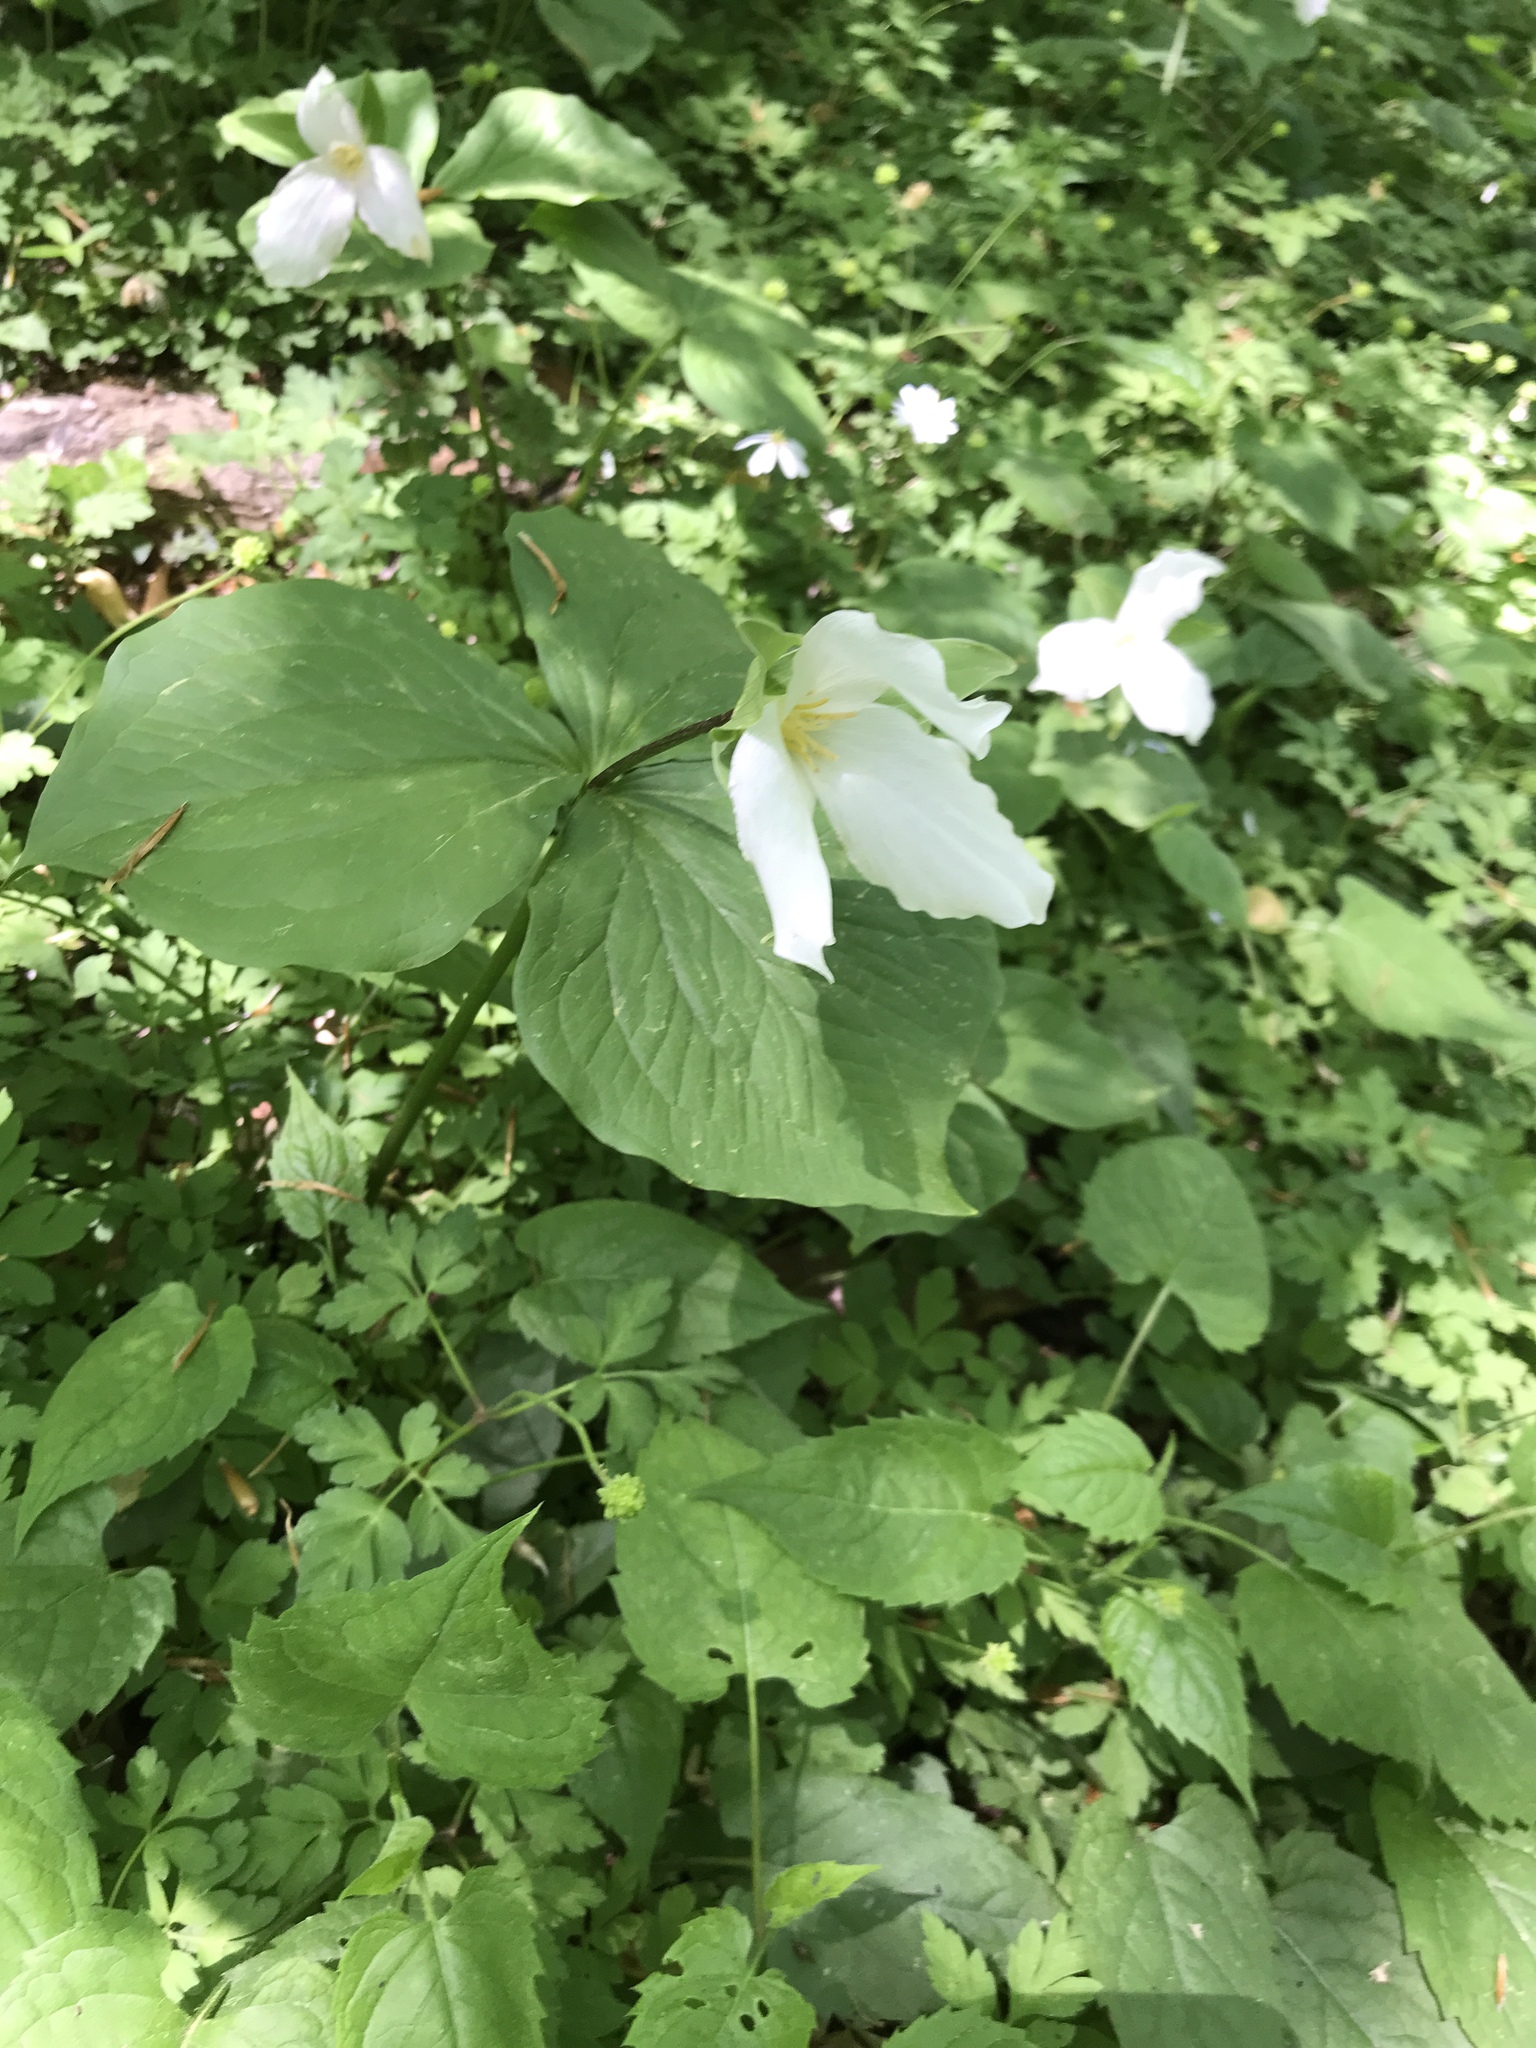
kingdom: Plantae
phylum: Tracheophyta
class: Liliopsida
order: Liliales
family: Melanthiaceae
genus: Trillium
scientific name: Trillium grandiflorum
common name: Great white trillium
